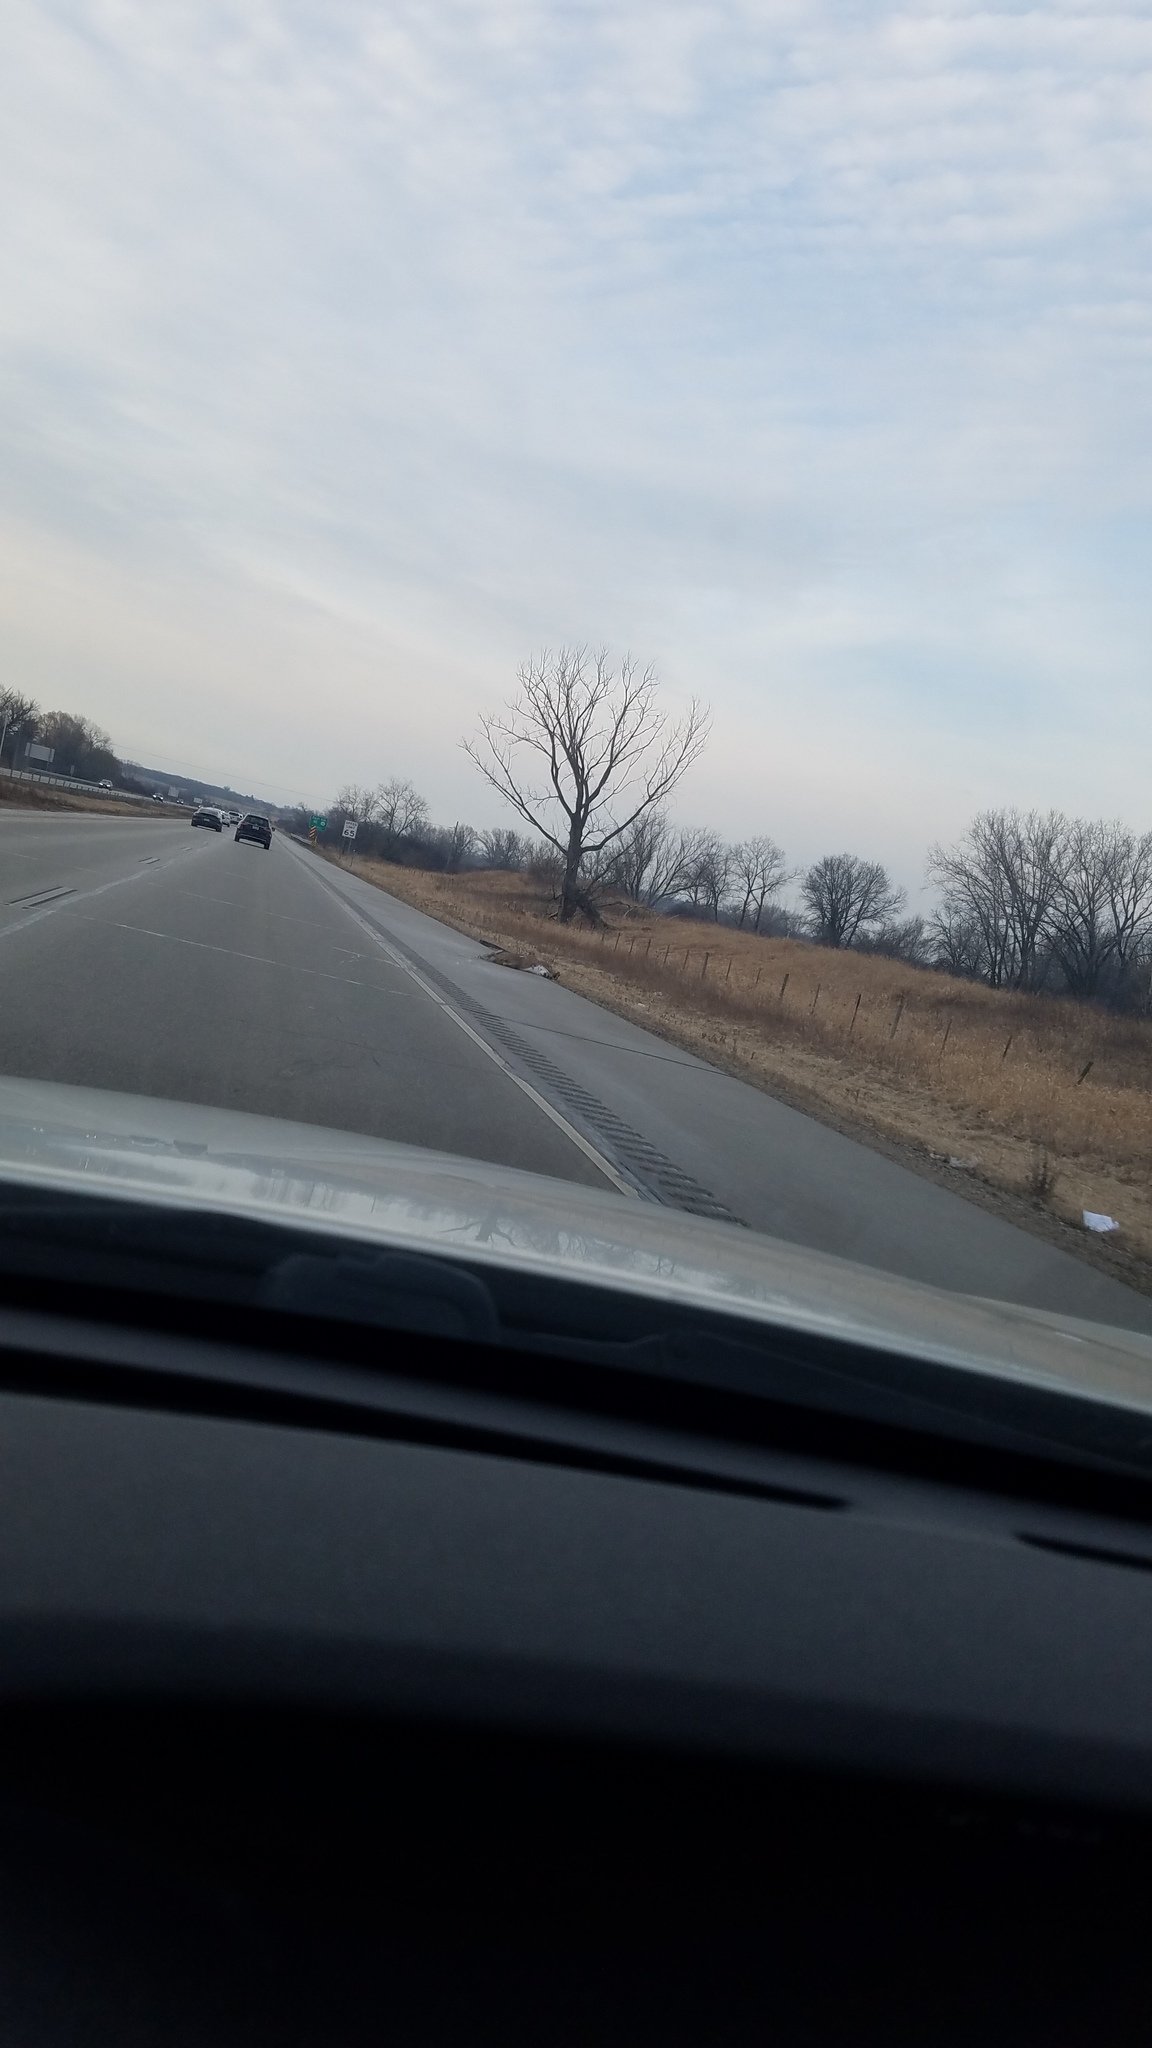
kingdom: Animalia
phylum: Chordata
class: Mammalia
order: Artiodactyla
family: Cervidae
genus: Odocoileus
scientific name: Odocoileus virginianus
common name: White-tailed deer
